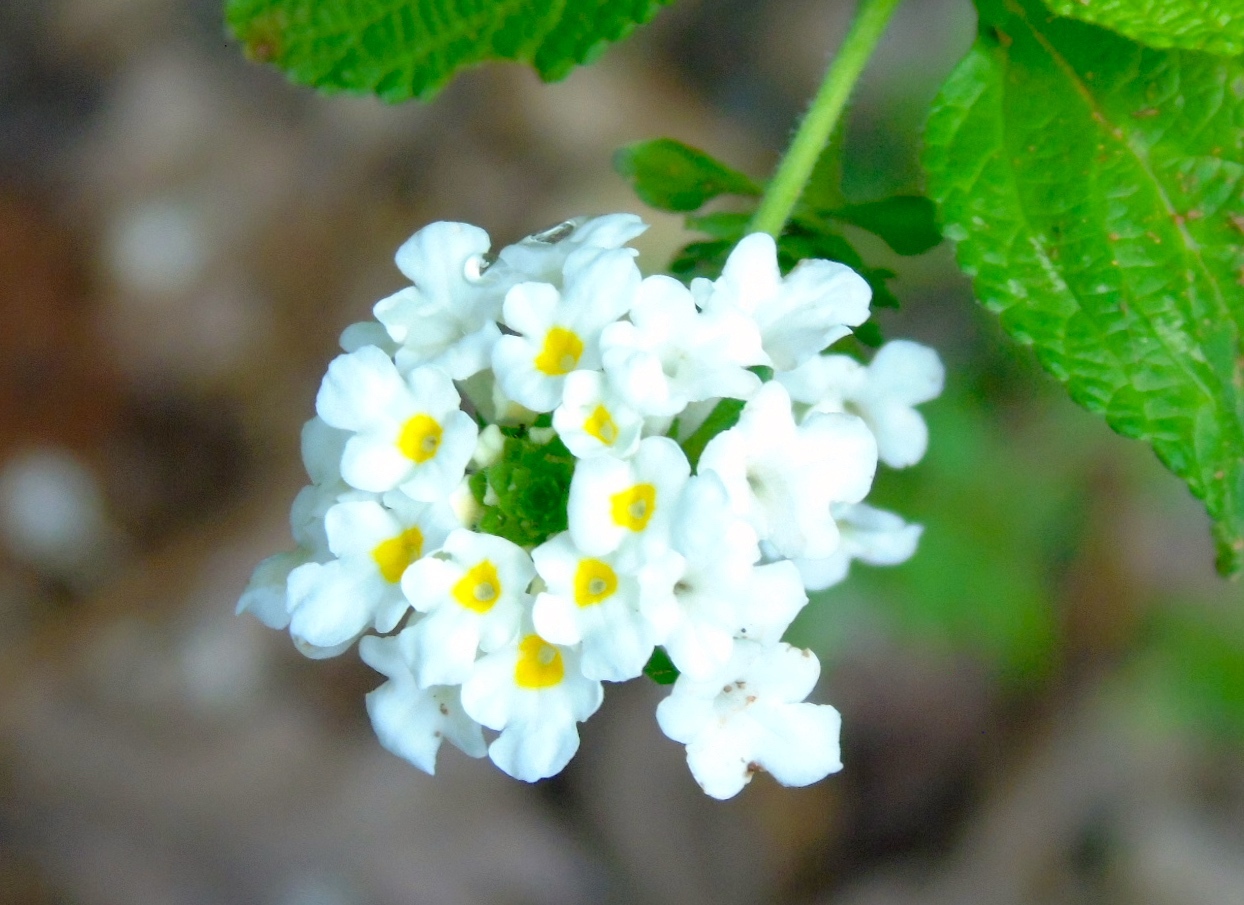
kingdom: Plantae
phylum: Tracheophyta
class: Magnoliopsida
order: Lamiales
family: Verbenaceae
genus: Lantana
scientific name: Lantana velutina
